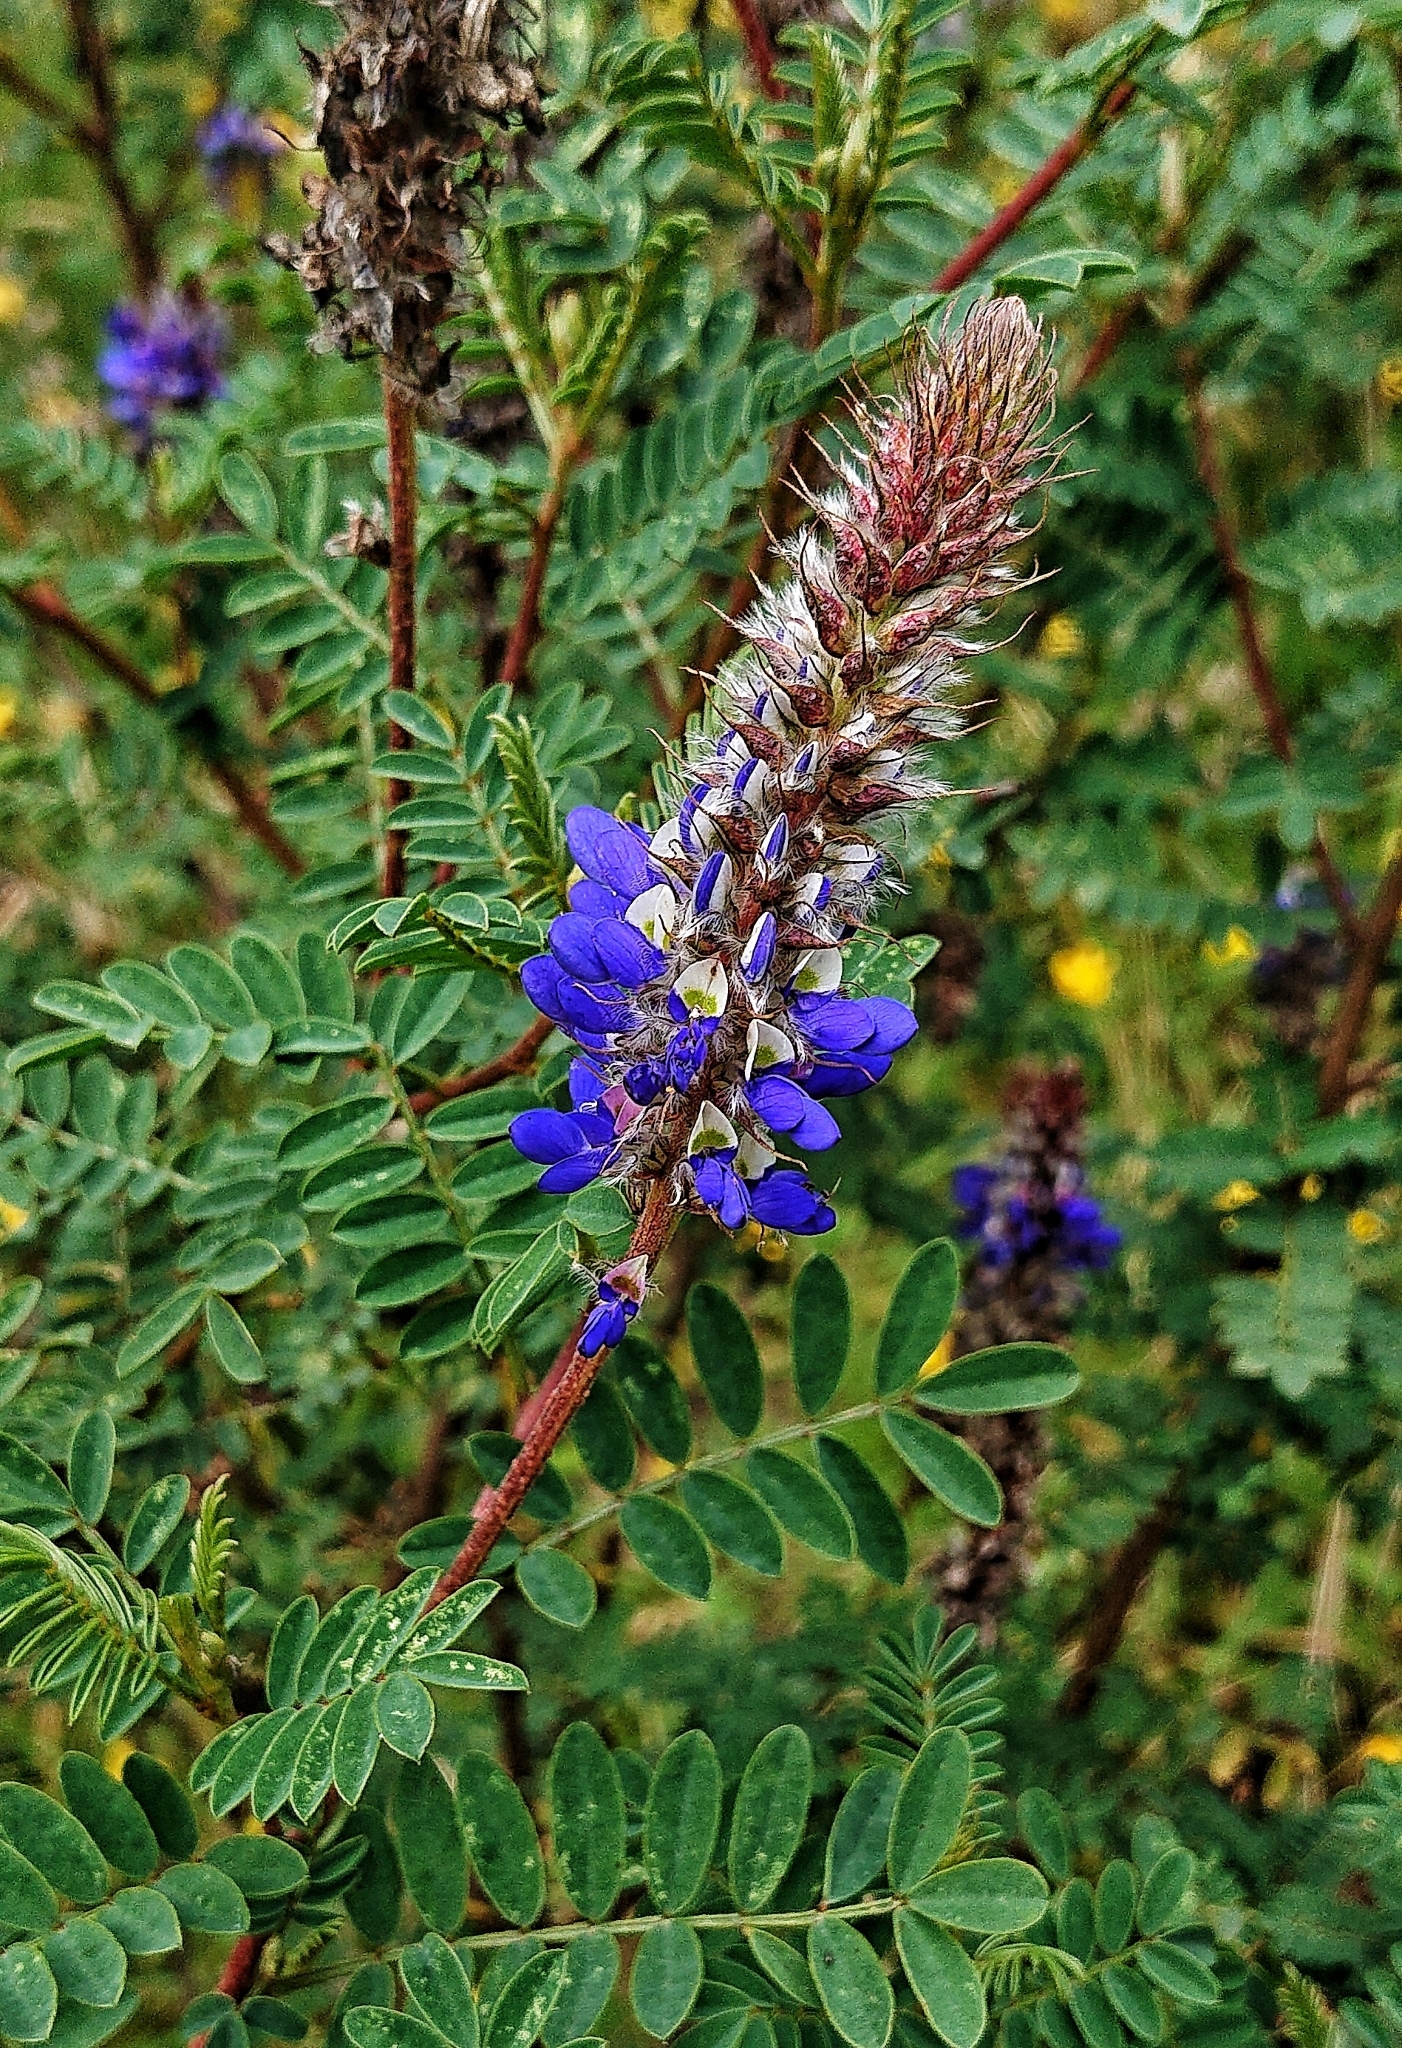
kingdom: Plantae
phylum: Tracheophyta
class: Magnoliopsida
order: Fabales
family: Fabaceae
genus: Dalea
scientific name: Dalea coerulea
